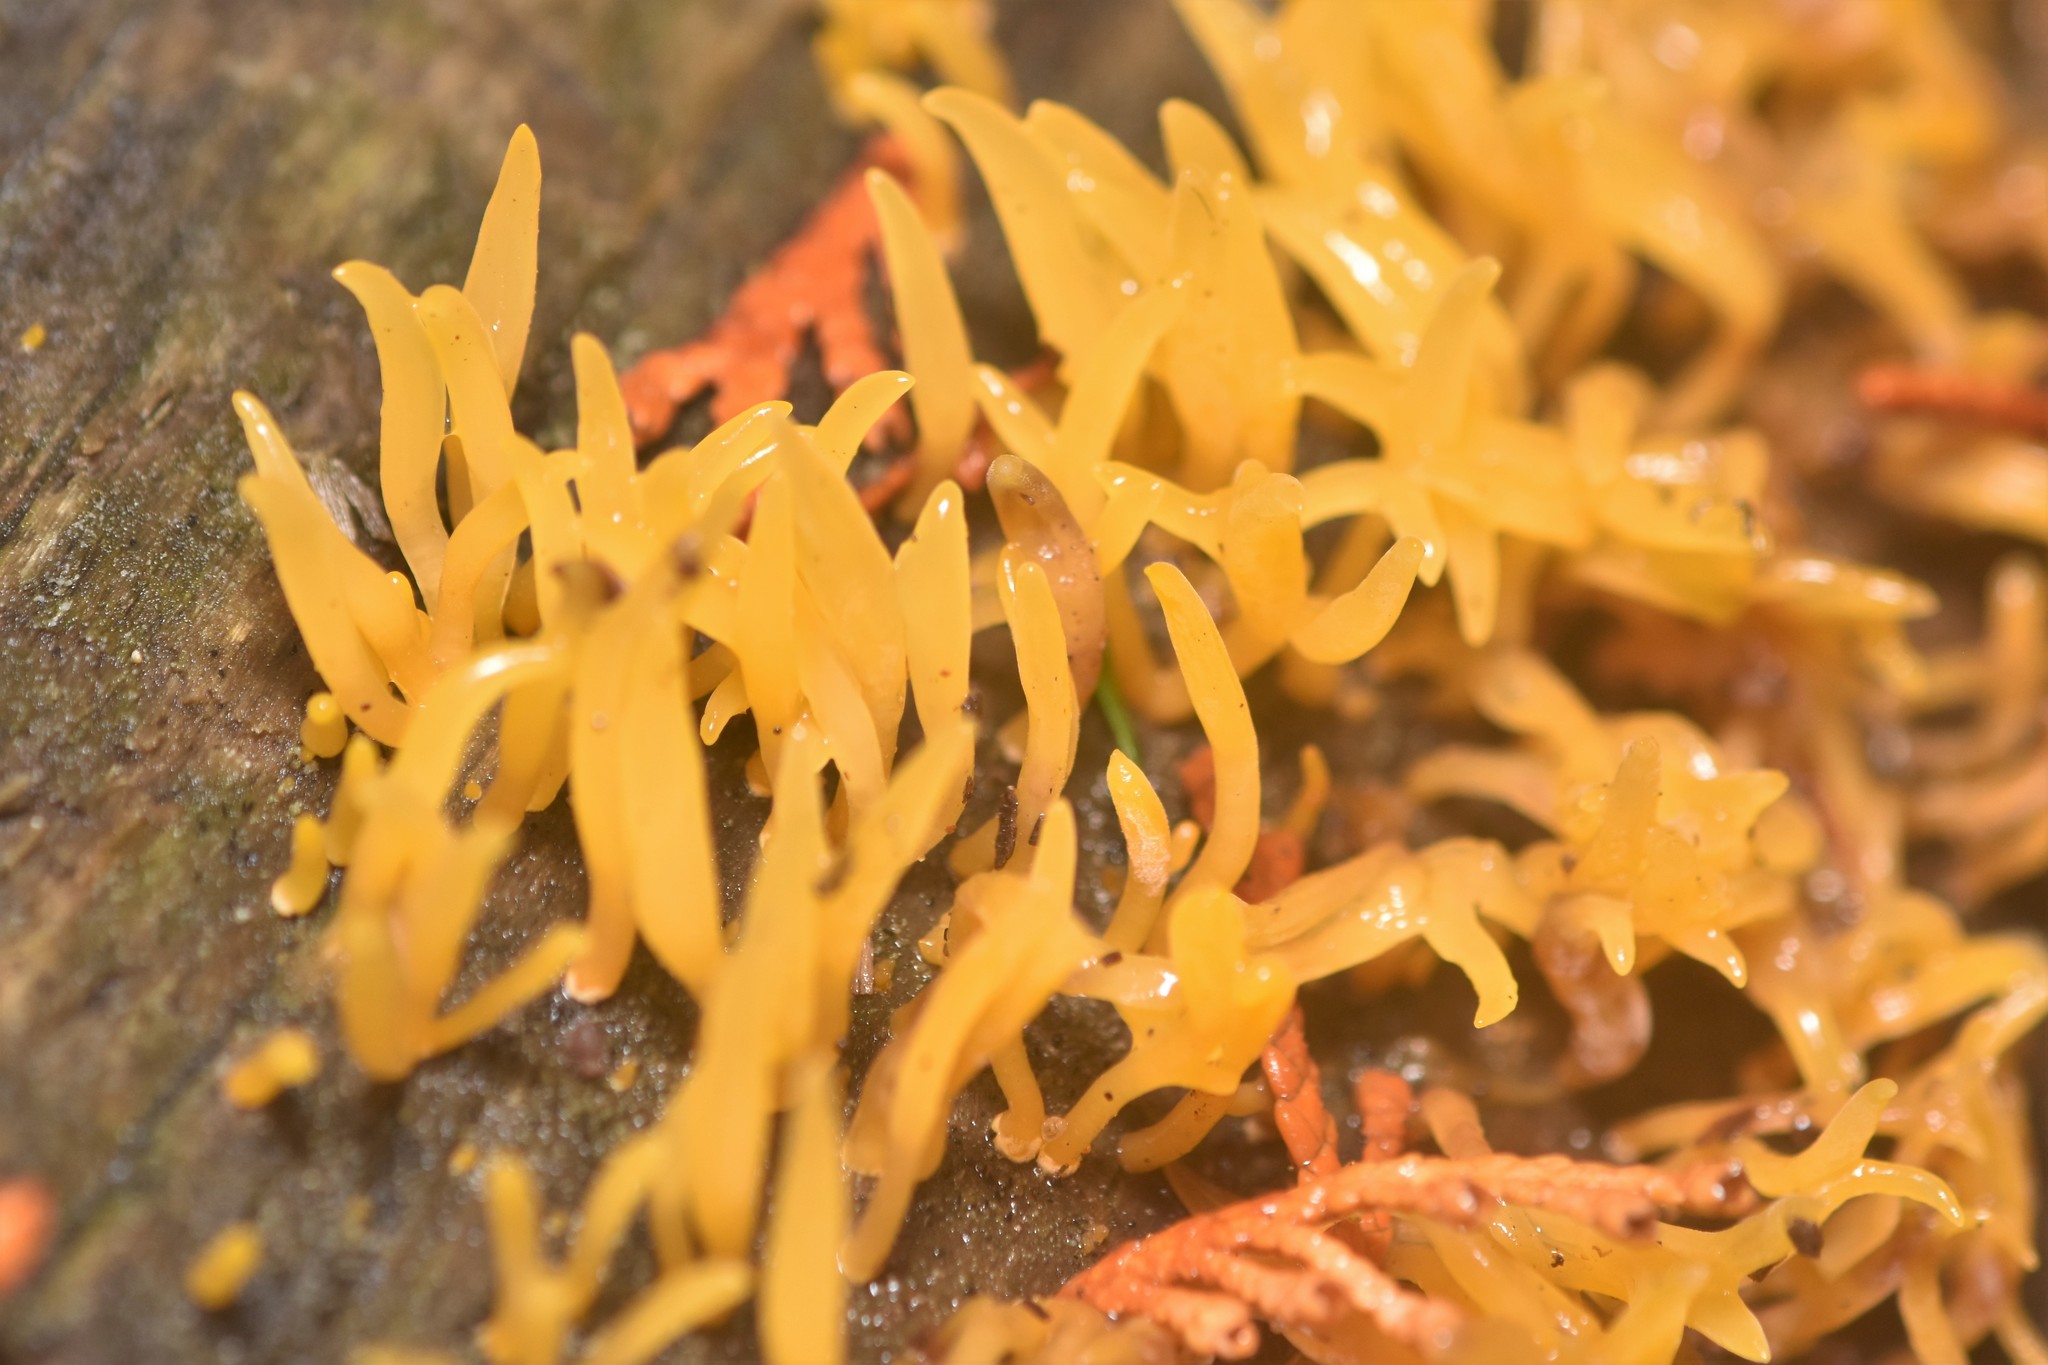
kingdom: Fungi
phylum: Basidiomycota
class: Dacrymycetes
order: Dacrymycetales
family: Dacrymycetaceae
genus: Calocera
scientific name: Calocera cornea
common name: Small stagshorn
